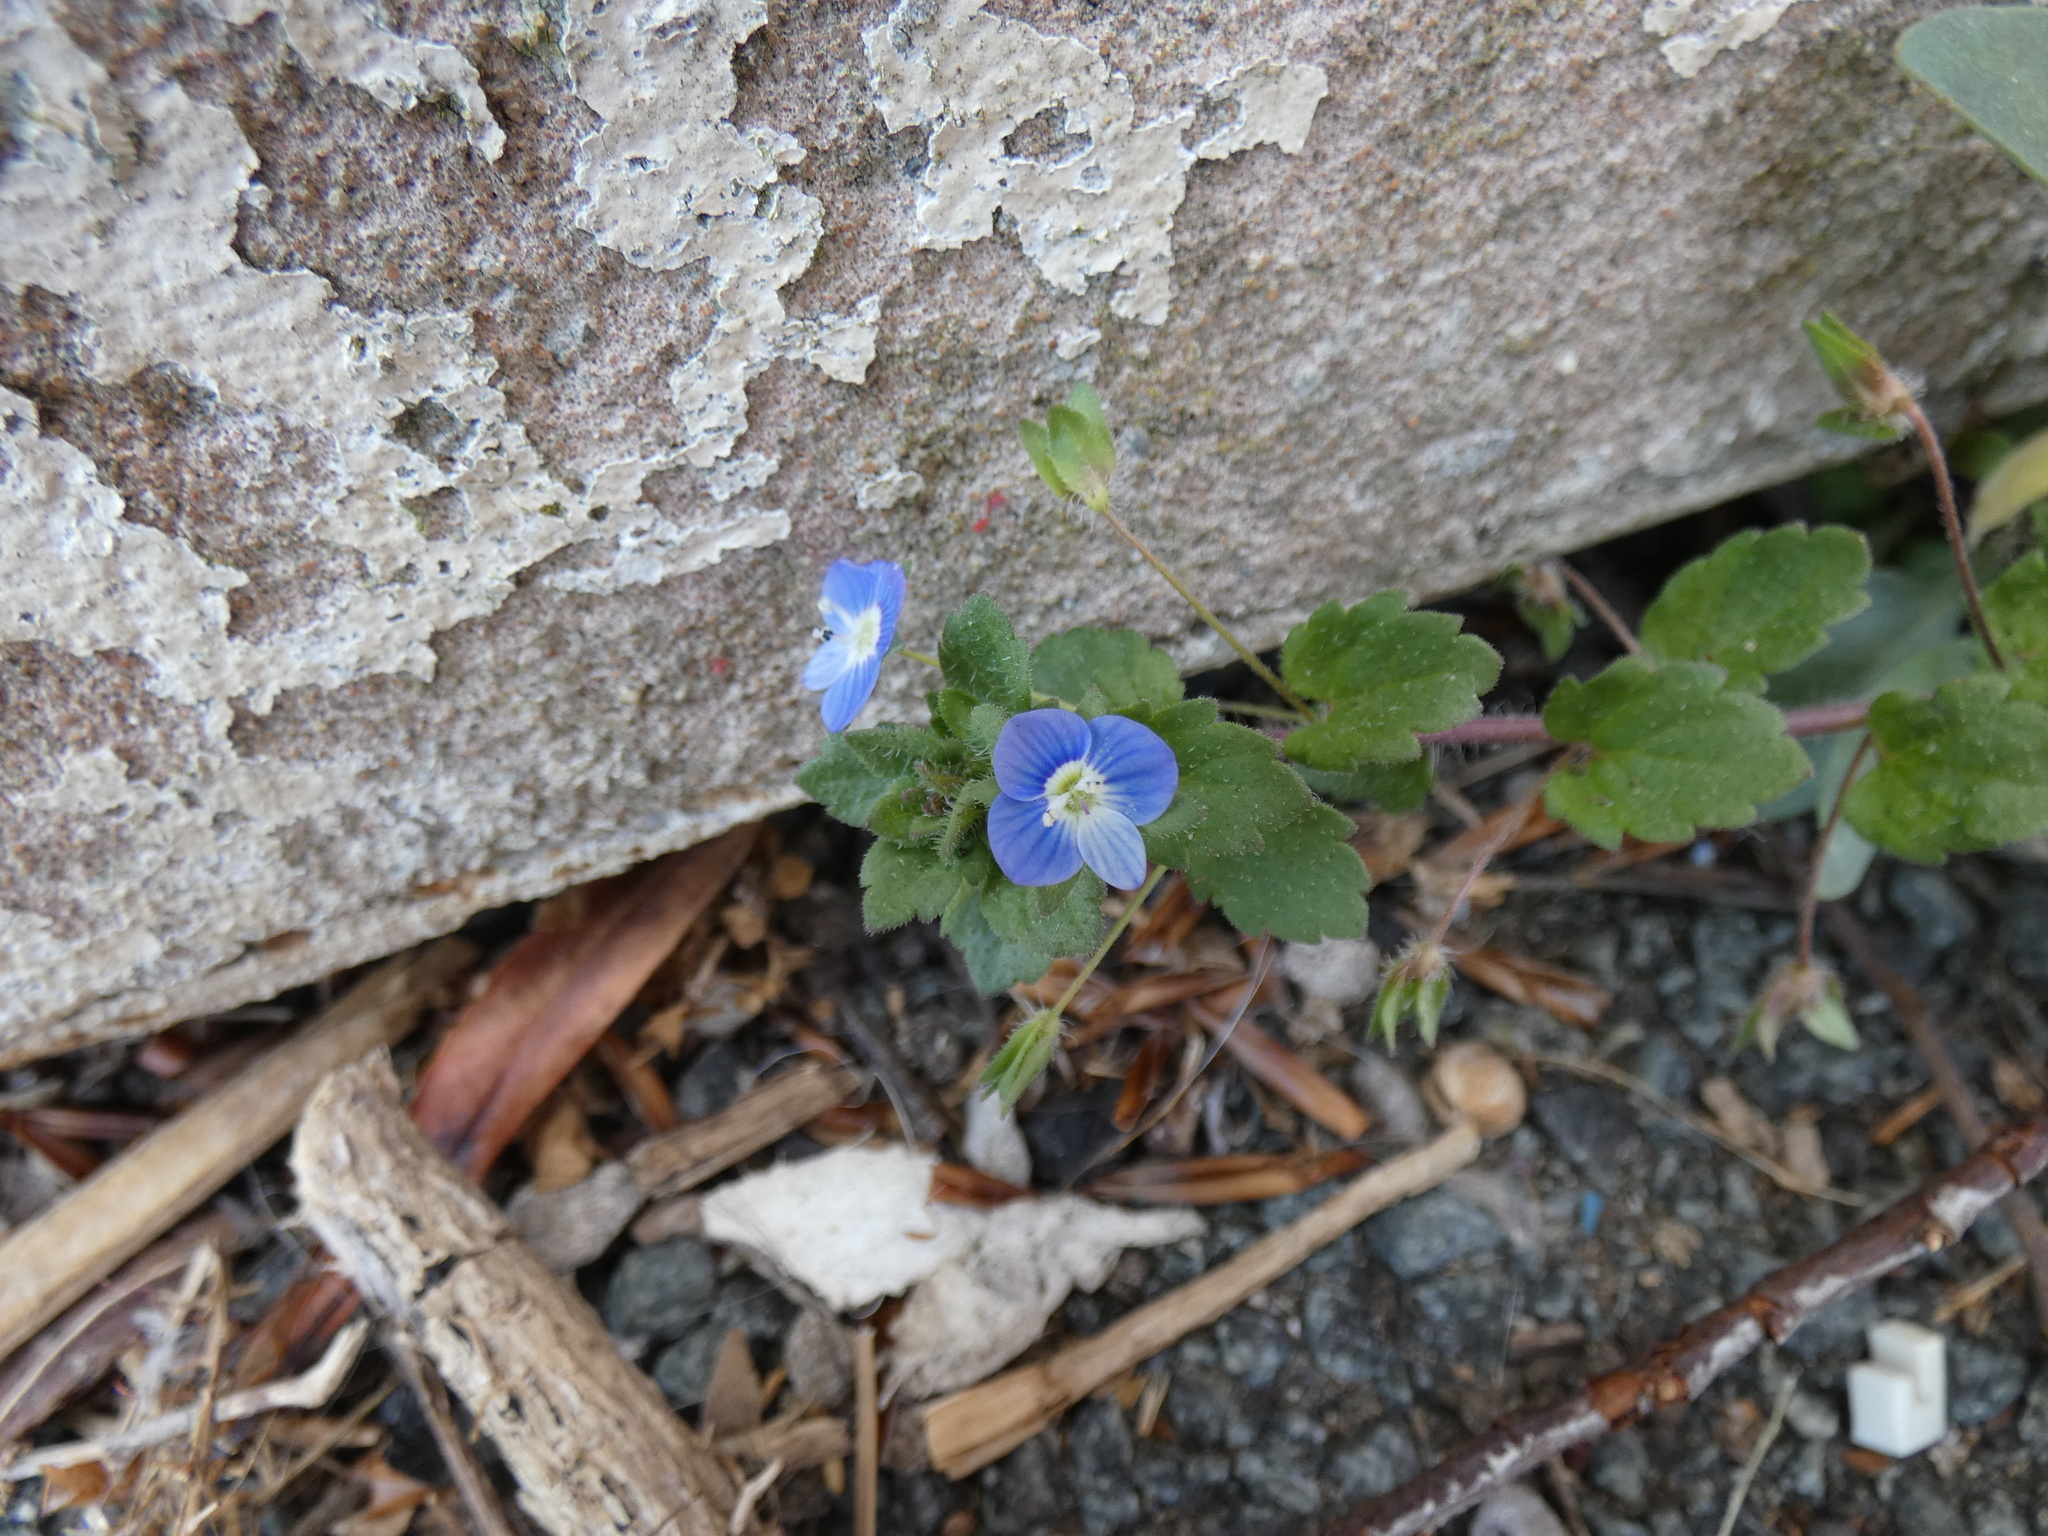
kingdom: Plantae
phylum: Tracheophyta
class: Magnoliopsida
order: Lamiales
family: Plantaginaceae
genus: Veronica
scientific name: Veronica persica
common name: Common field-speedwell
